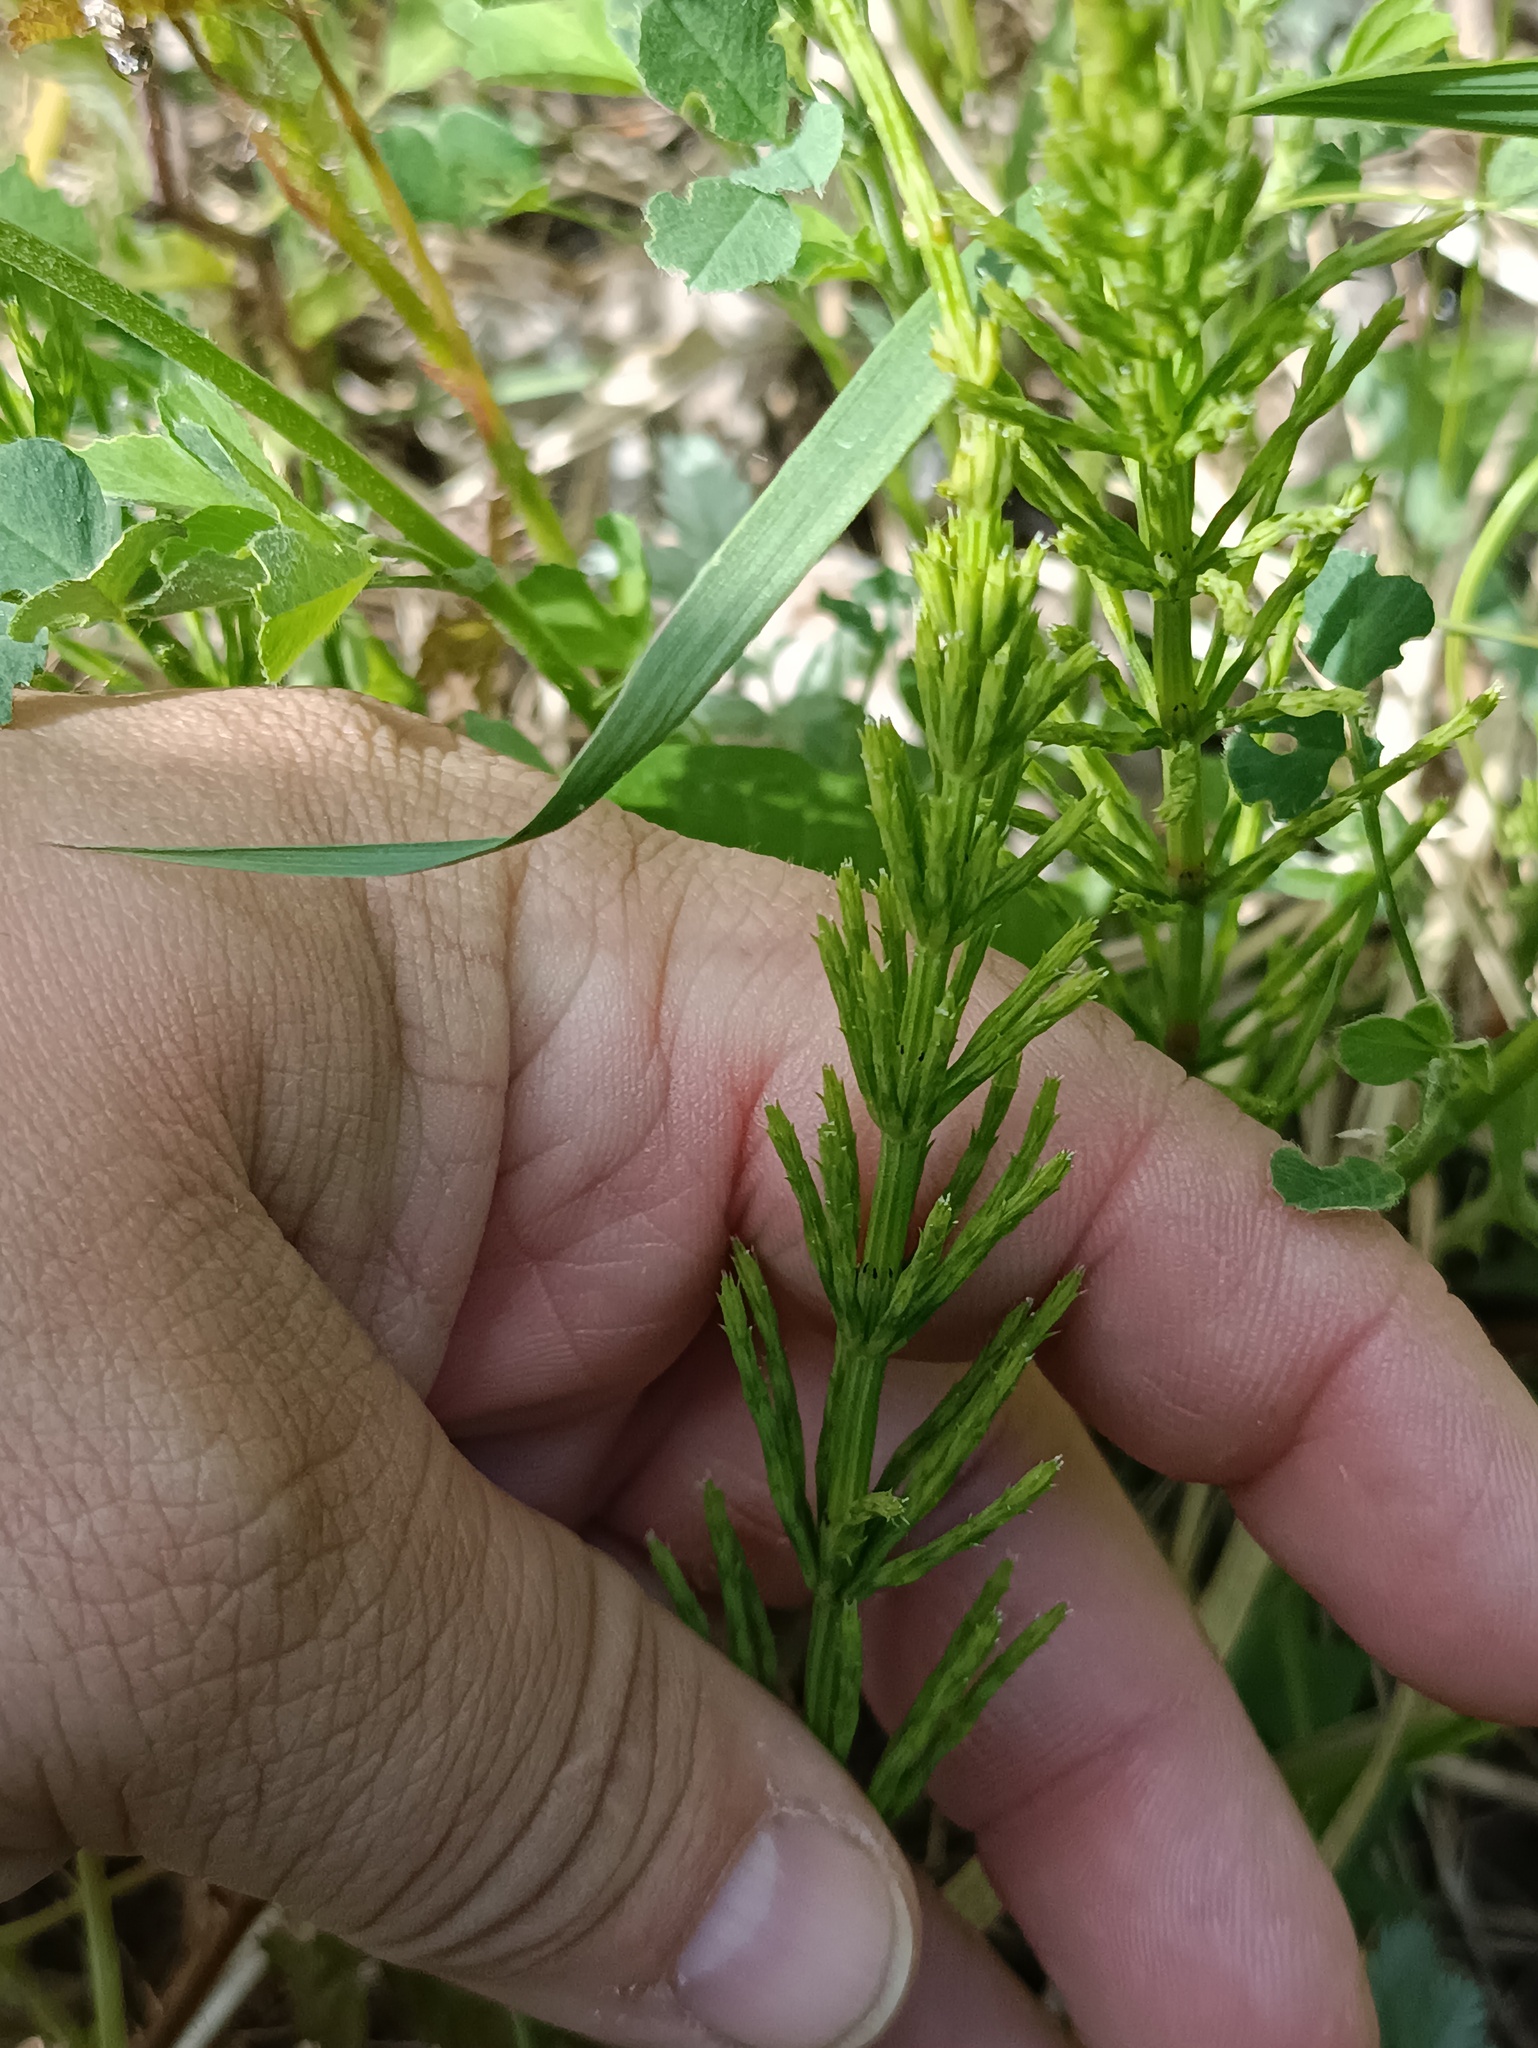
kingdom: Plantae
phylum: Tracheophyta
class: Polypodiopsida
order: Equisetales
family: Equisetaceae
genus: Equisetum
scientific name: Equisetum arvense
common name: Field horsetail
